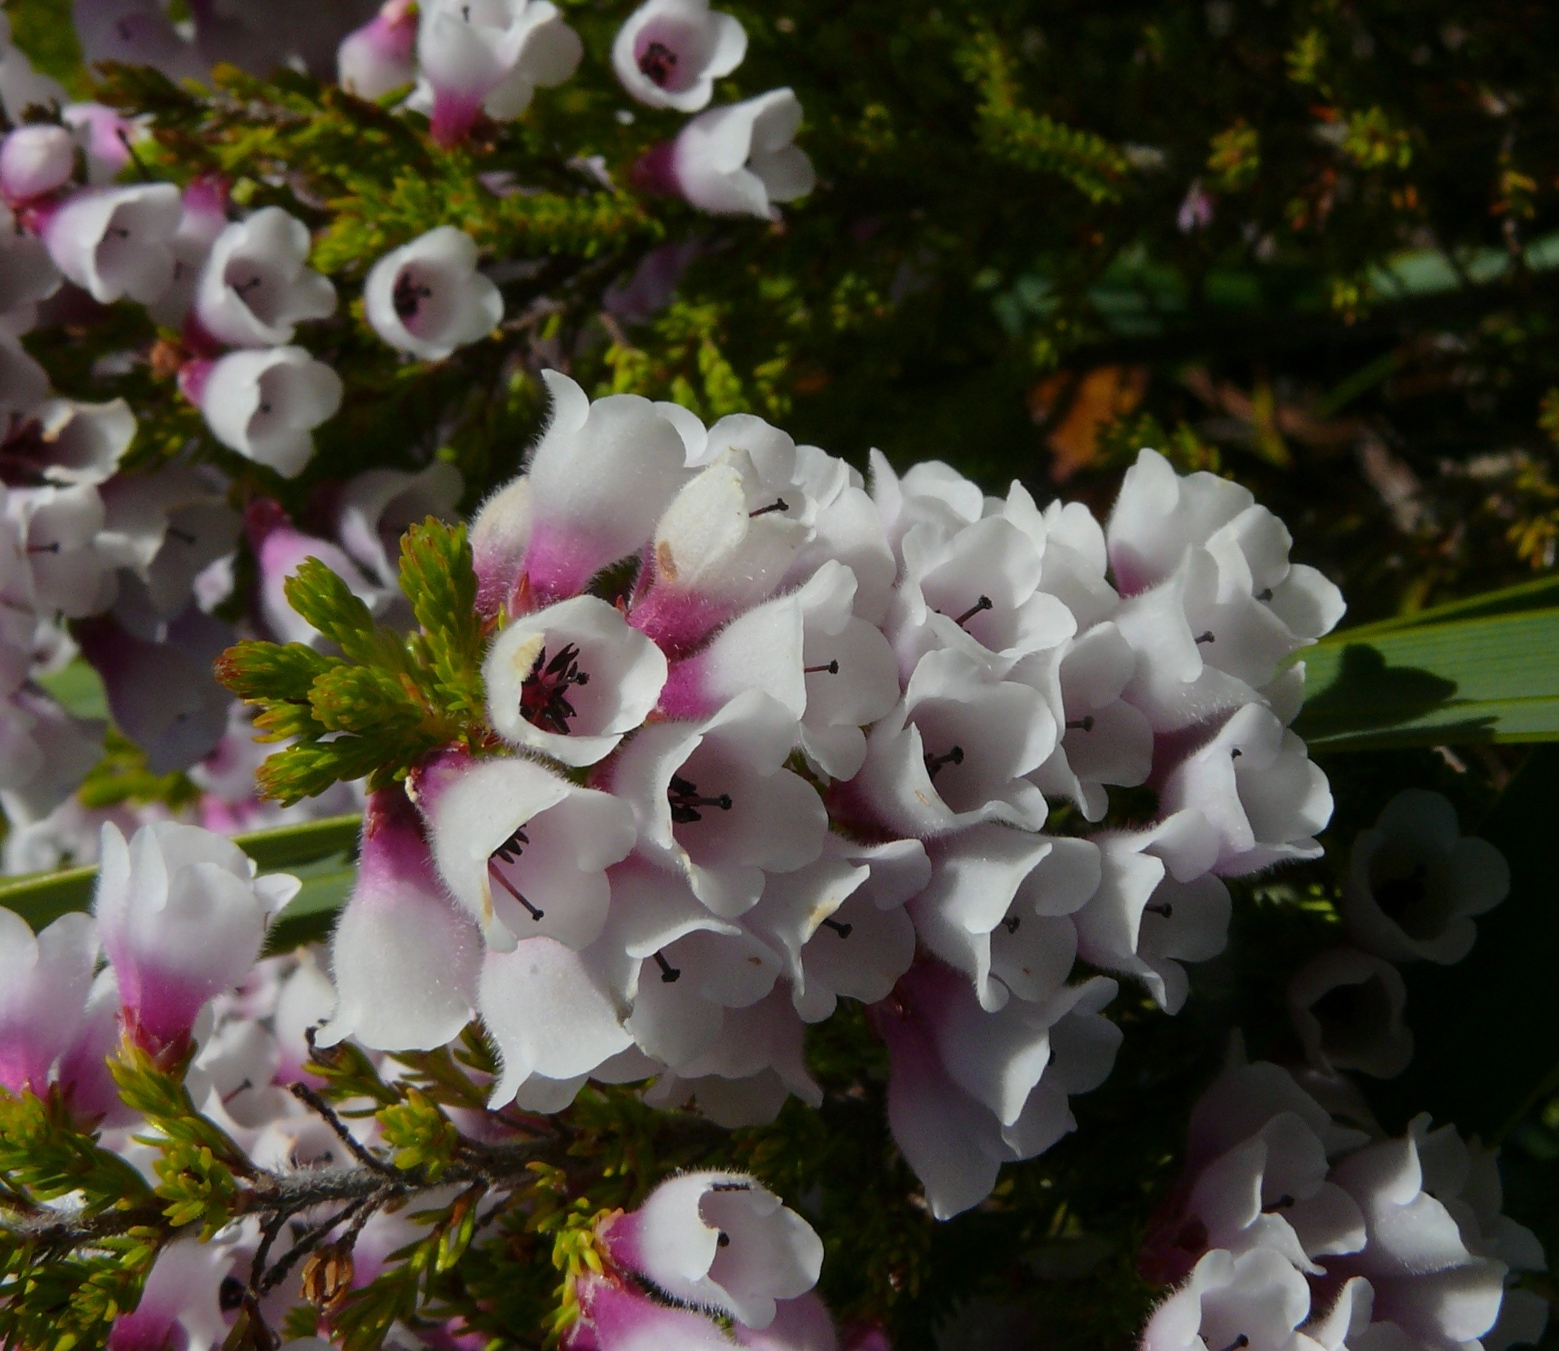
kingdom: Plantae
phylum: Tracheophyta
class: Magnoliopsida
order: Ericales
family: Ericaceae
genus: Erica
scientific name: Erica propendens
